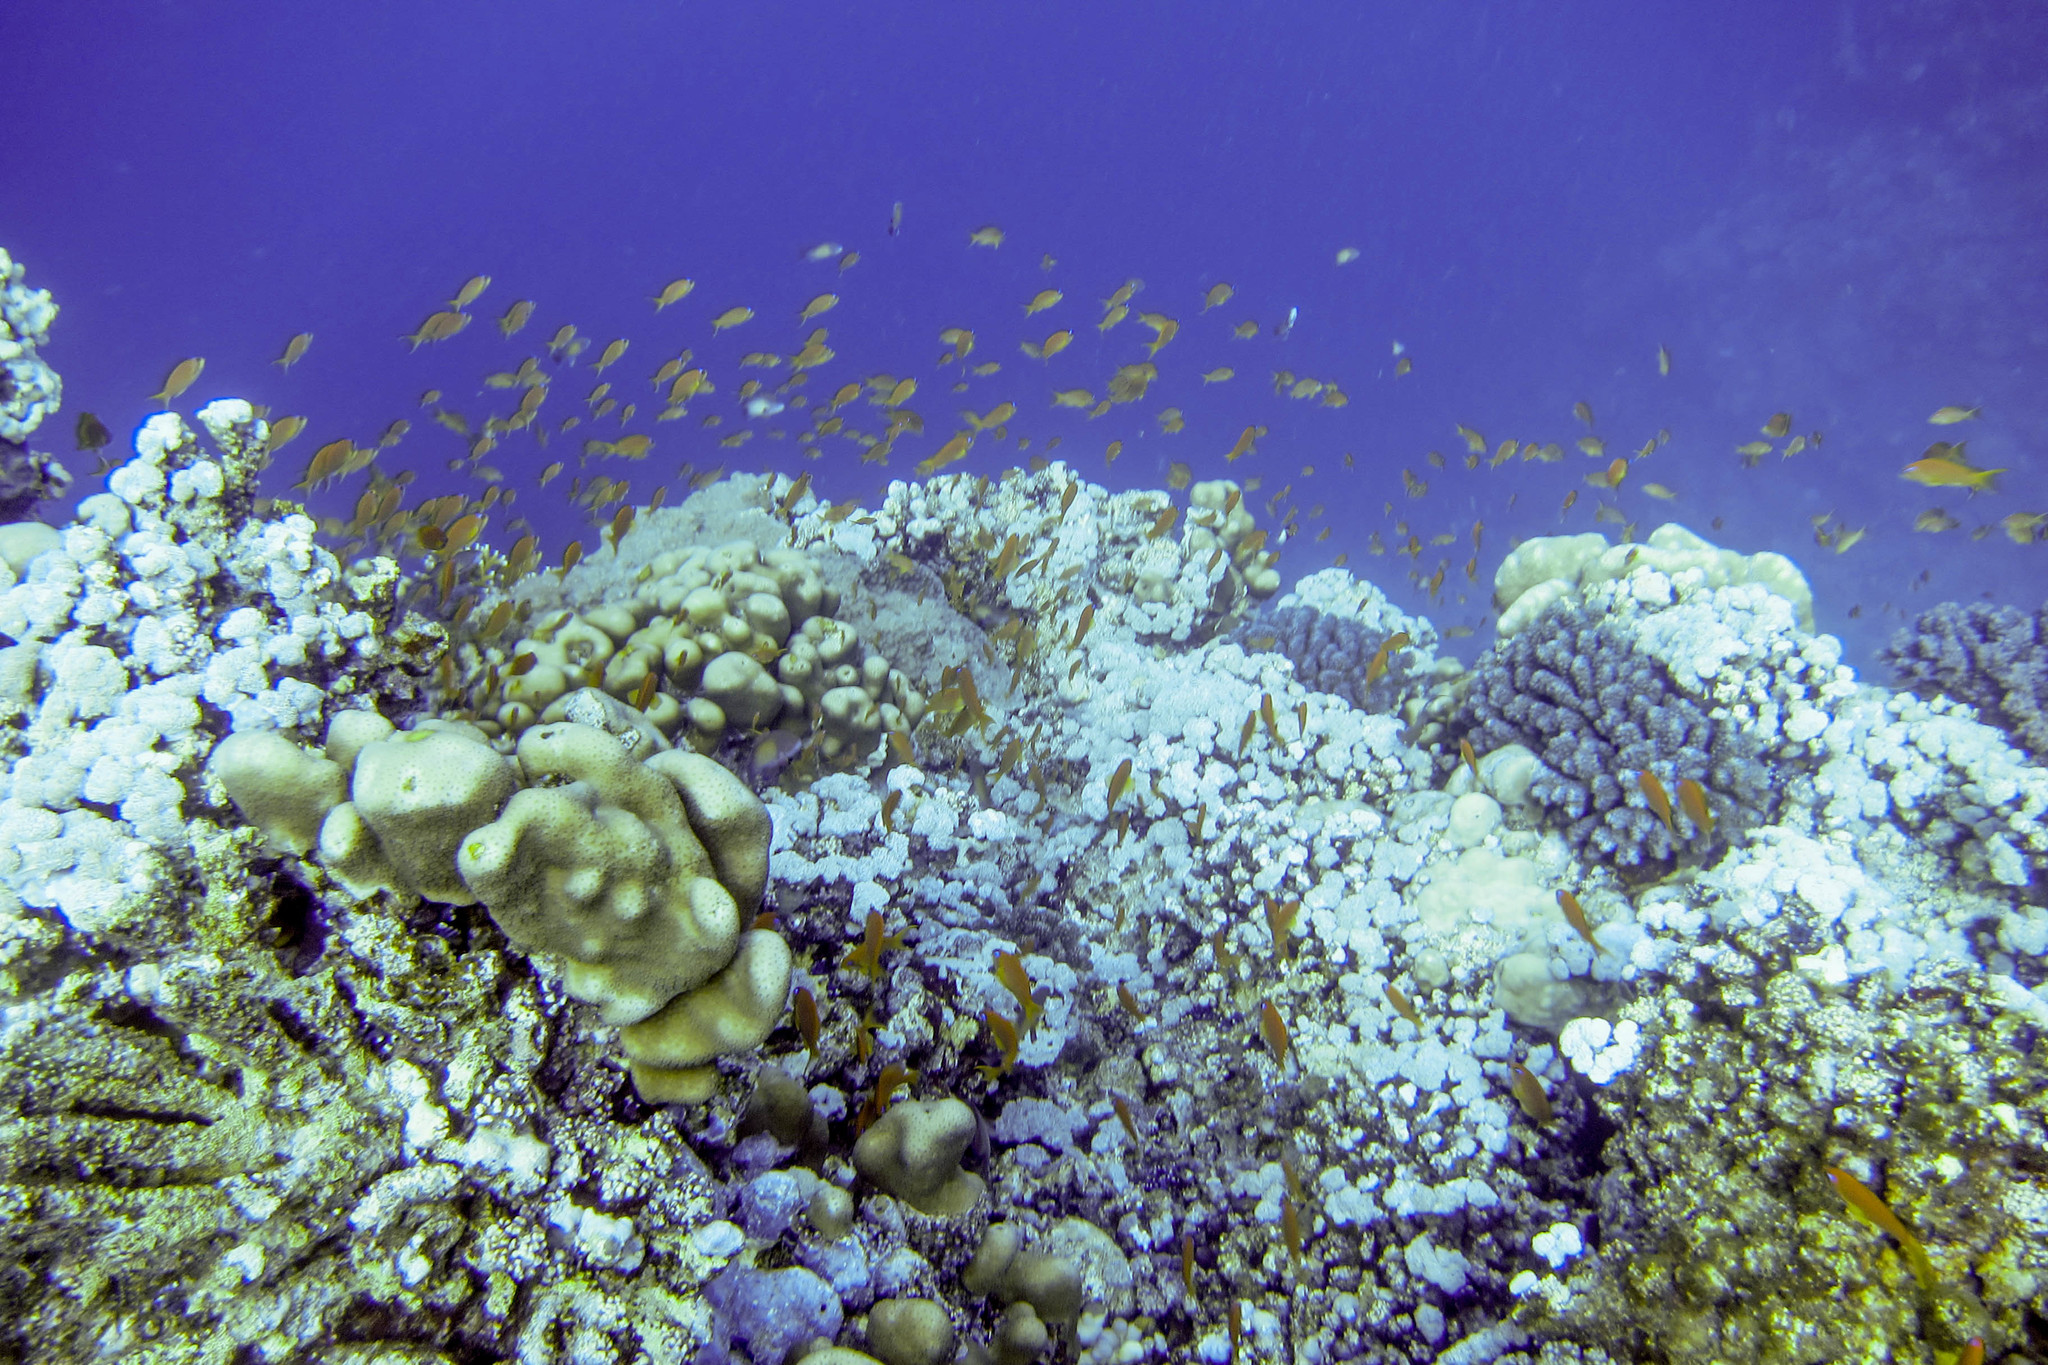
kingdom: Animalia
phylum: Chordata
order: Perciformes
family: Serranidae
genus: Pseudanthias
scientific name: Pseudanthias squamipinnis
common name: Scalefin anthias
